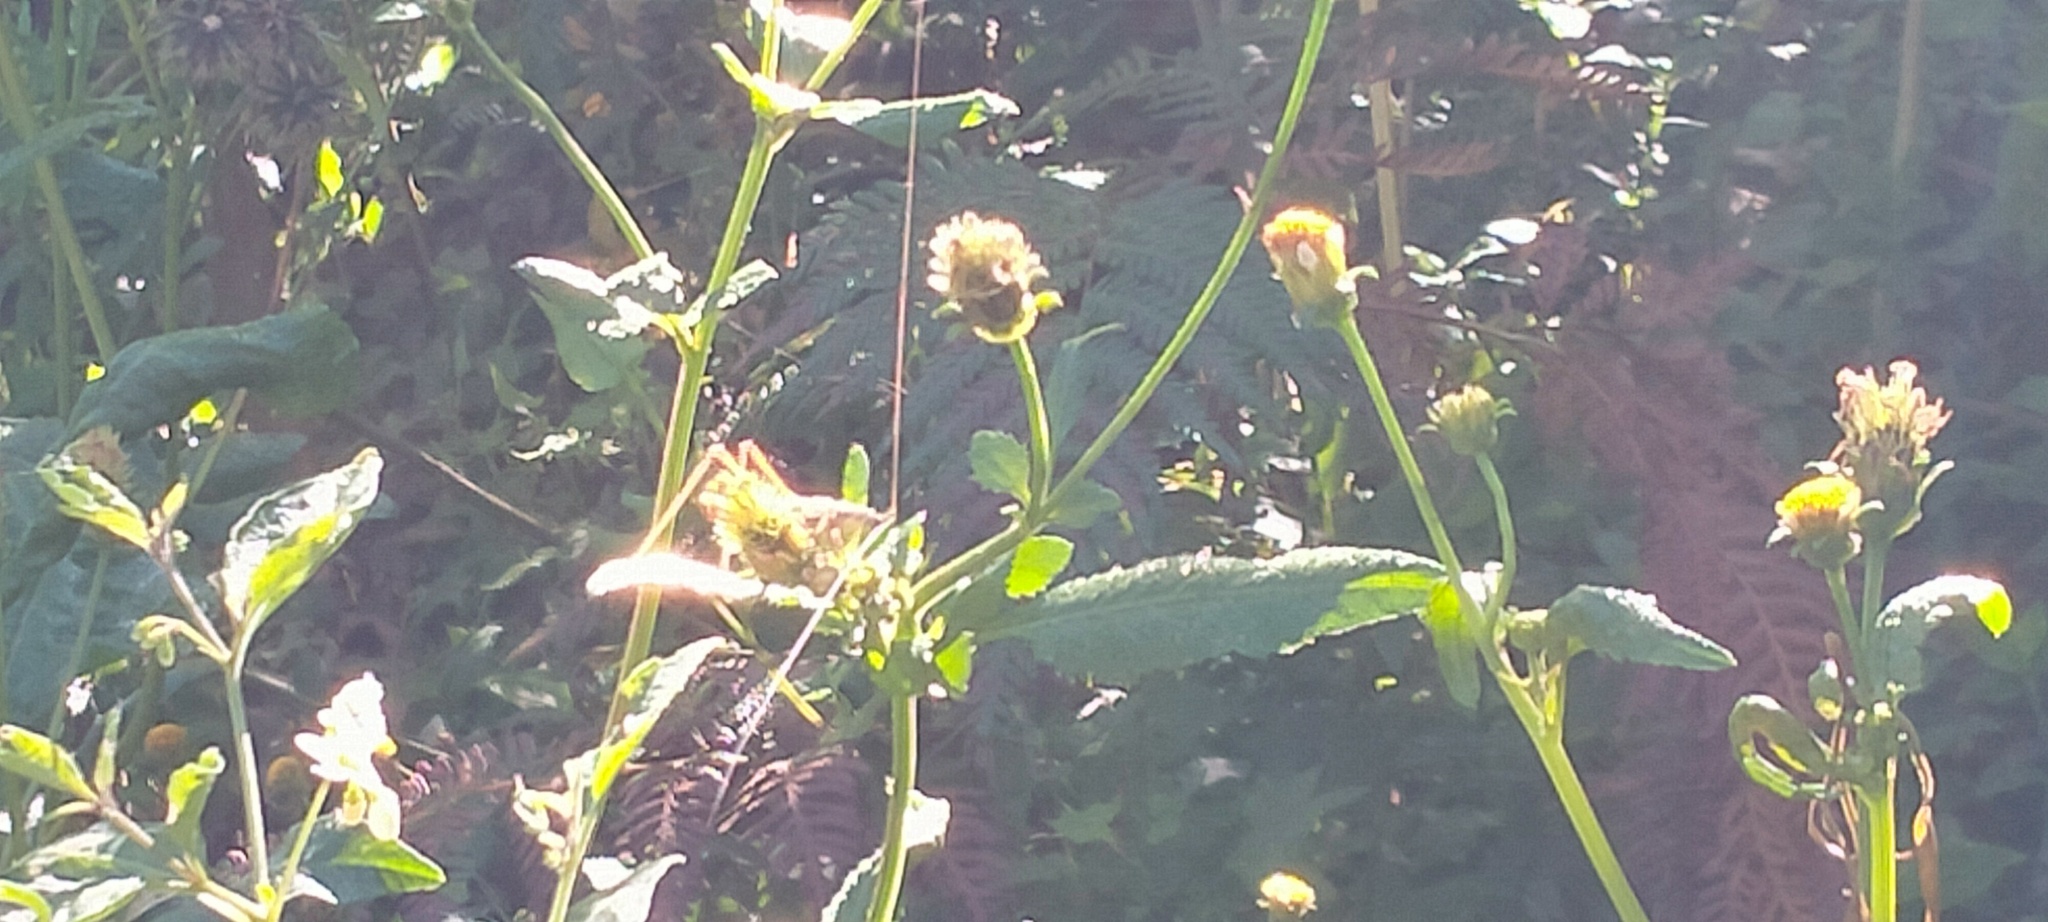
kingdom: Animalia
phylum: Arthropoda
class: Insecta
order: Orthoptera
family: Tettigoniidae
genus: Conocephalus
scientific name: Conocephalus semivittatus
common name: Blackish meadow katydid
